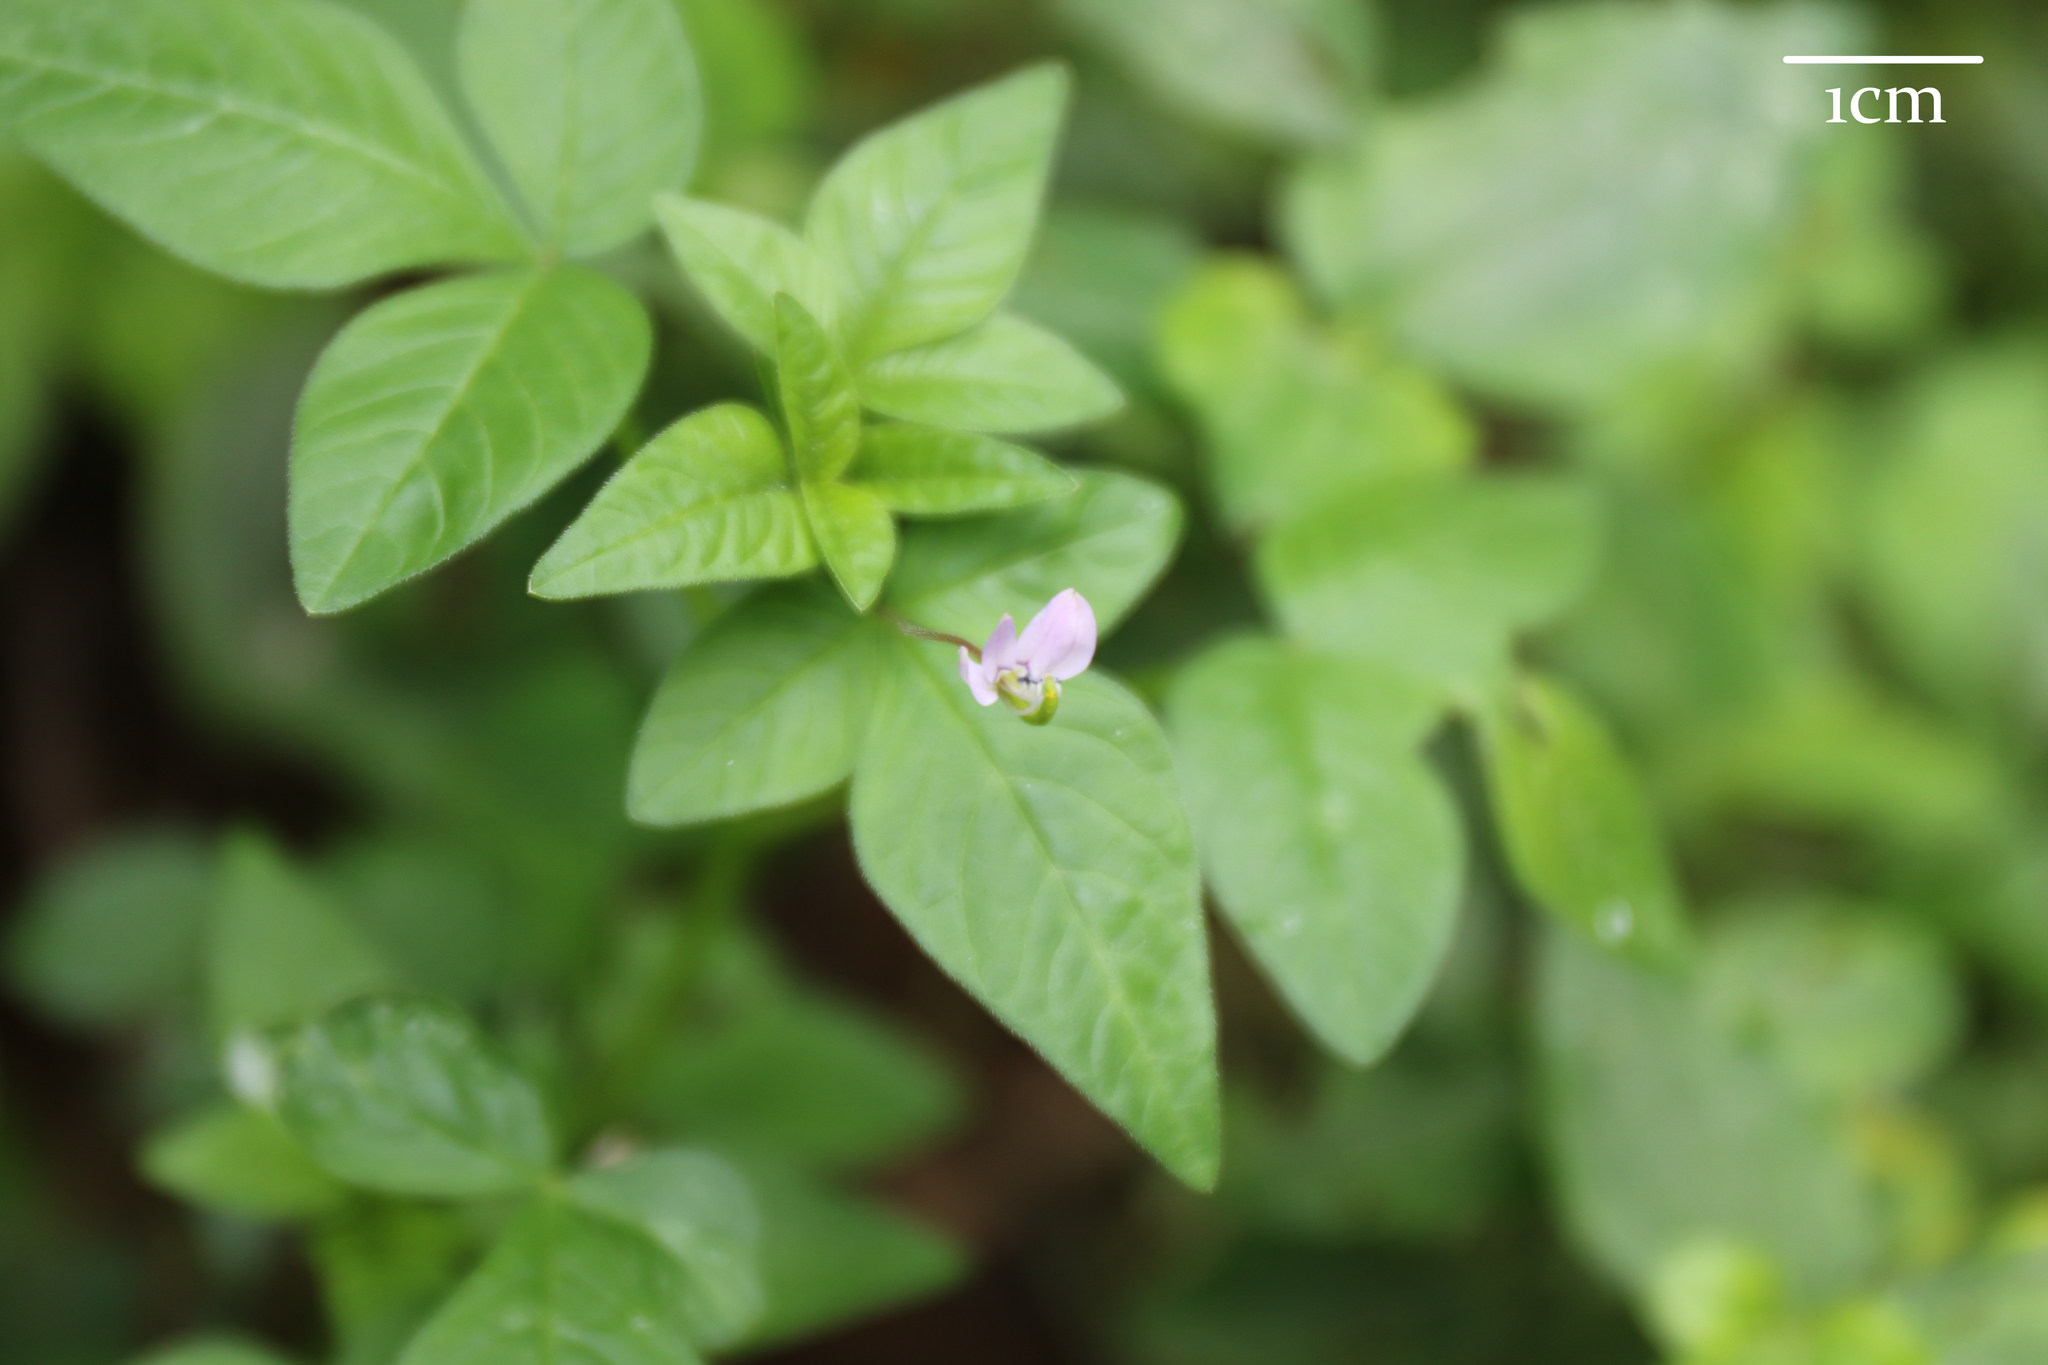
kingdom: Plantae
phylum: Tracheophyta
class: Magnoliopsida
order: Brassicales
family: Cleomaceae
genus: Sieruela
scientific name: Sieruela rutidosperma
